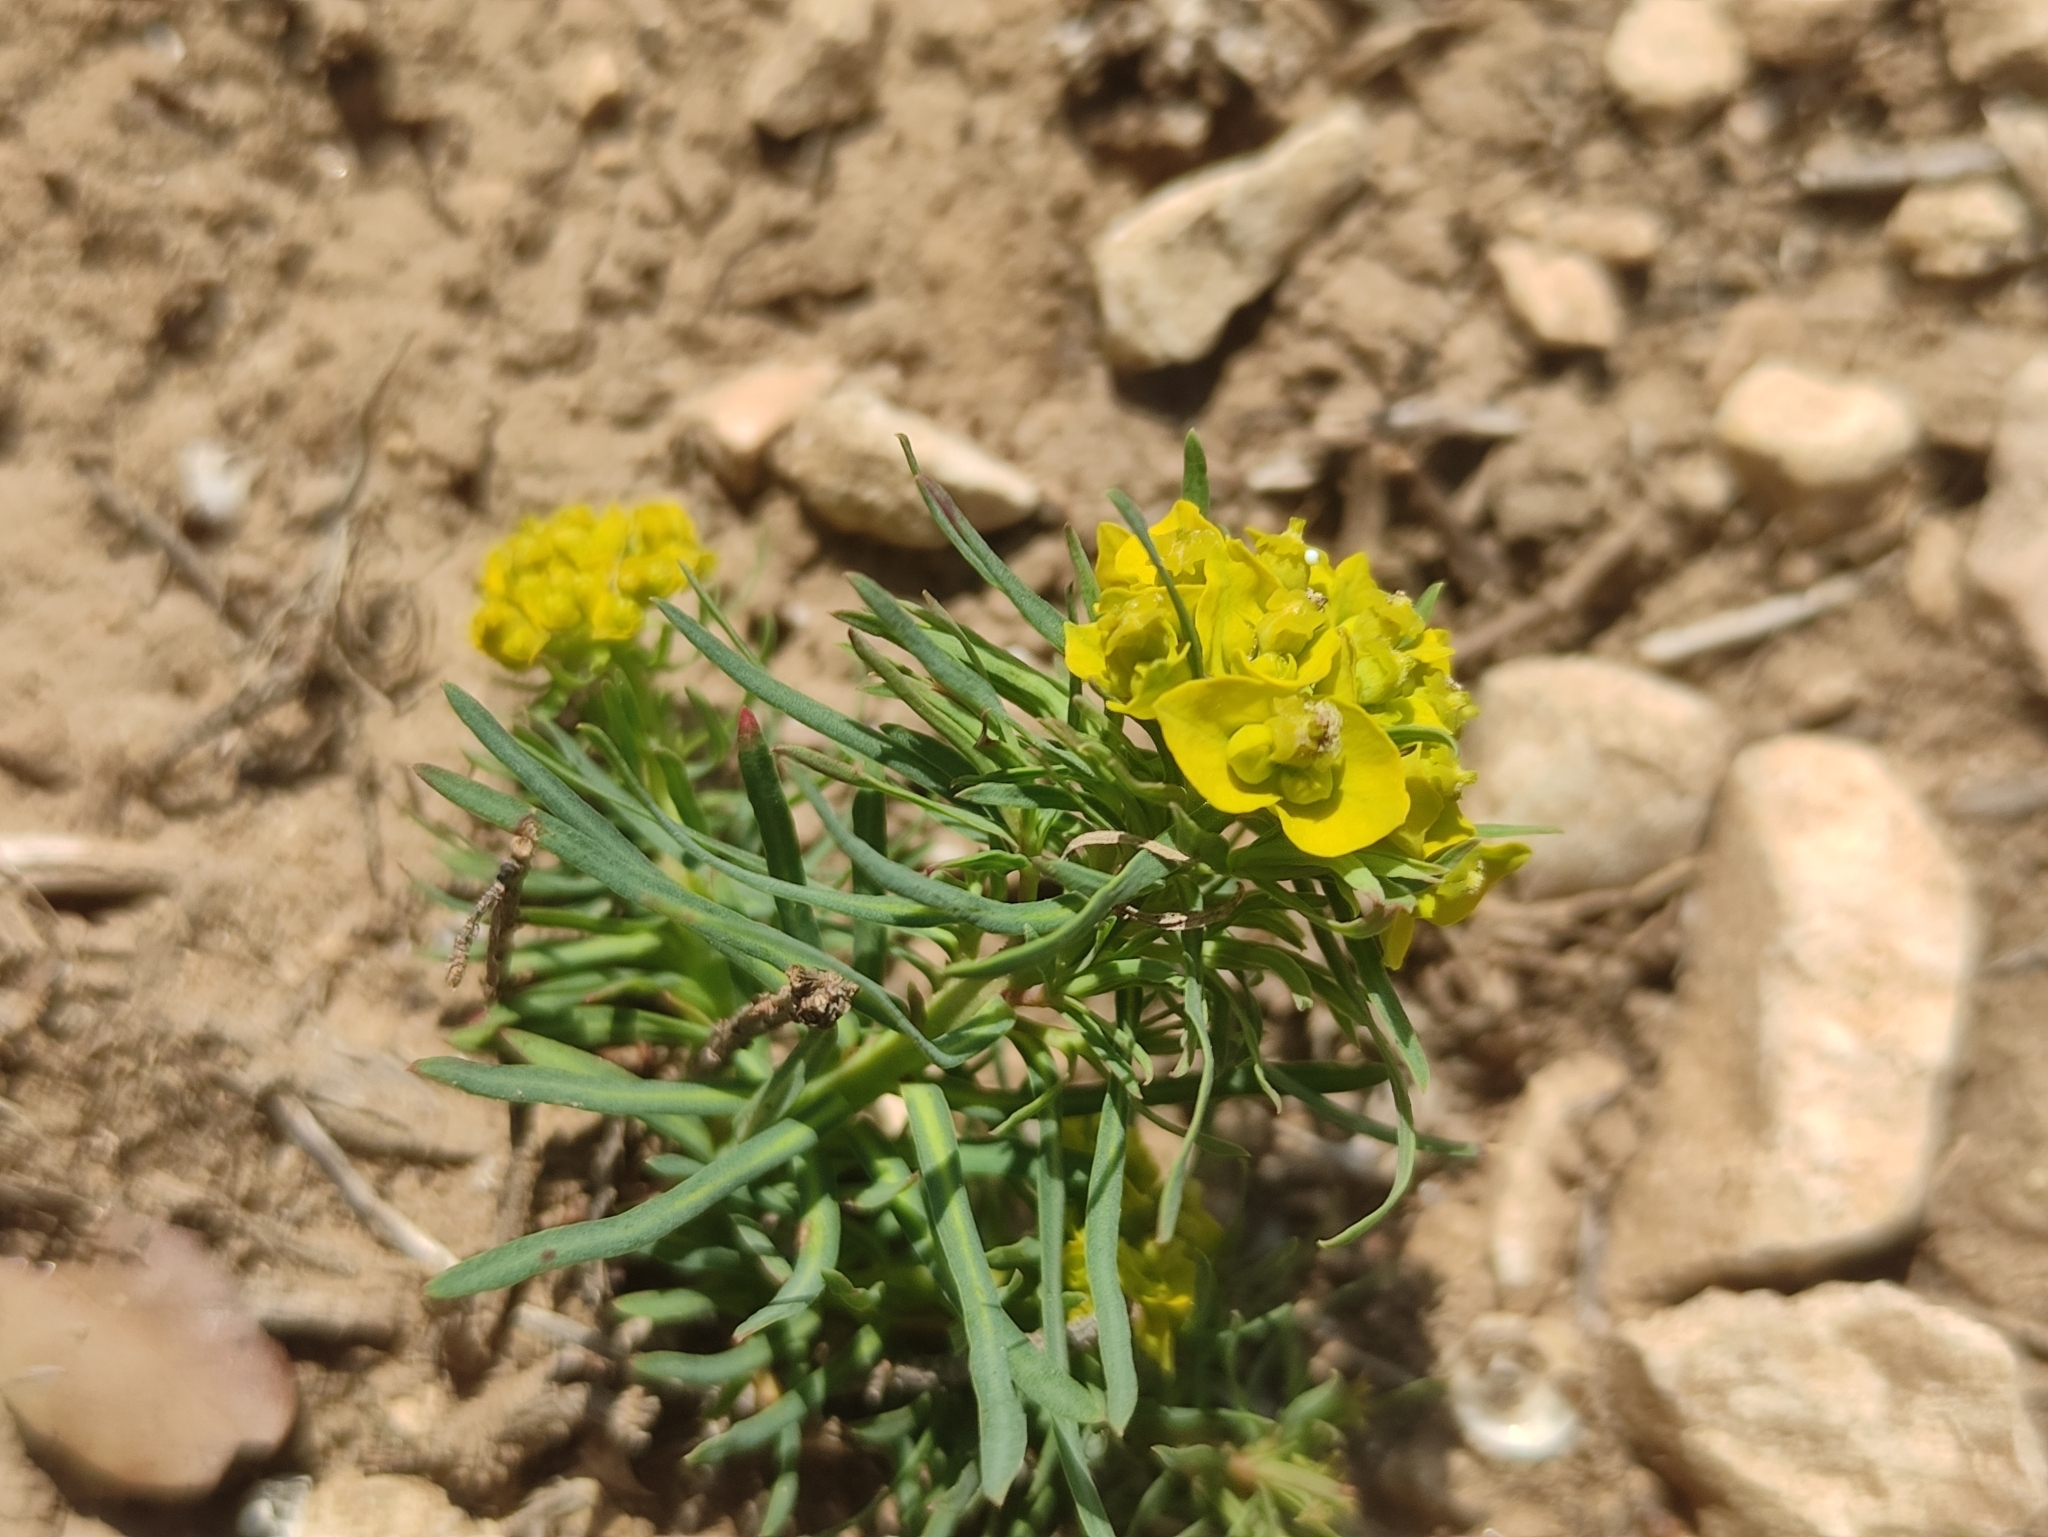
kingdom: Plantae
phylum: Tracheophyta
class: Magnoliopsida
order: Malpighiales
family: Euphorbiaceae
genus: Euphorbia
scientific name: Euphorbia cyparissias
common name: Cypress spurge
